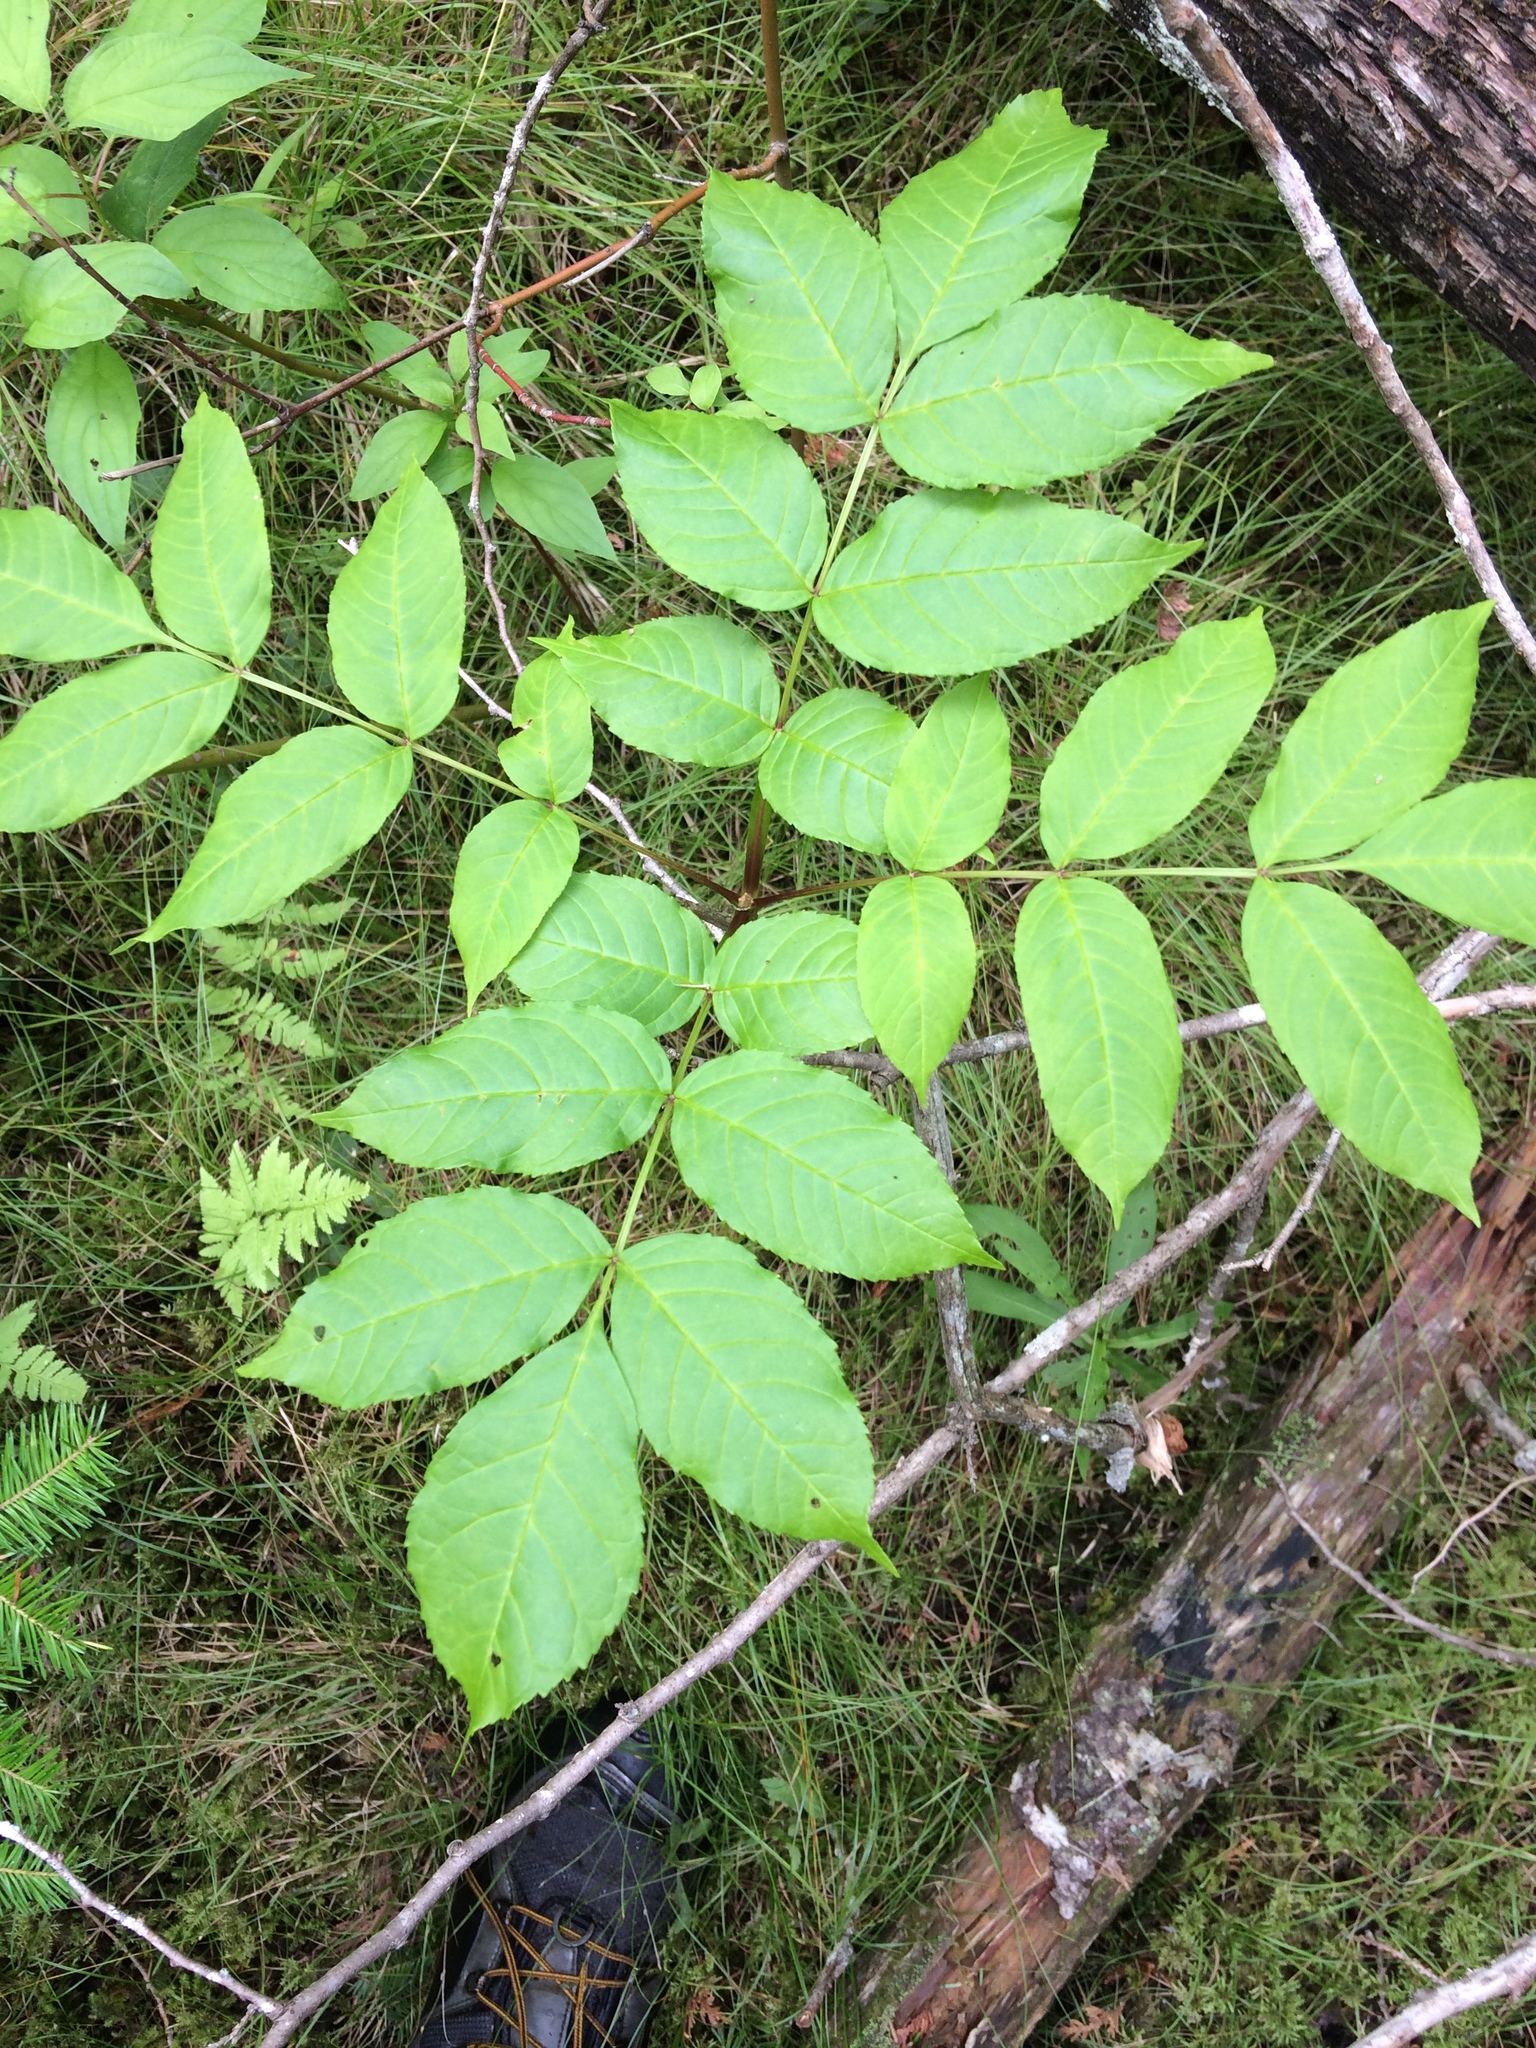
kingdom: Plantae
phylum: Tracheophyta
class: Magnoliopsida
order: Lamiales
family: Oleaceae
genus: Fraxinus
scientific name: Fraxinus nigra
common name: Black ash
